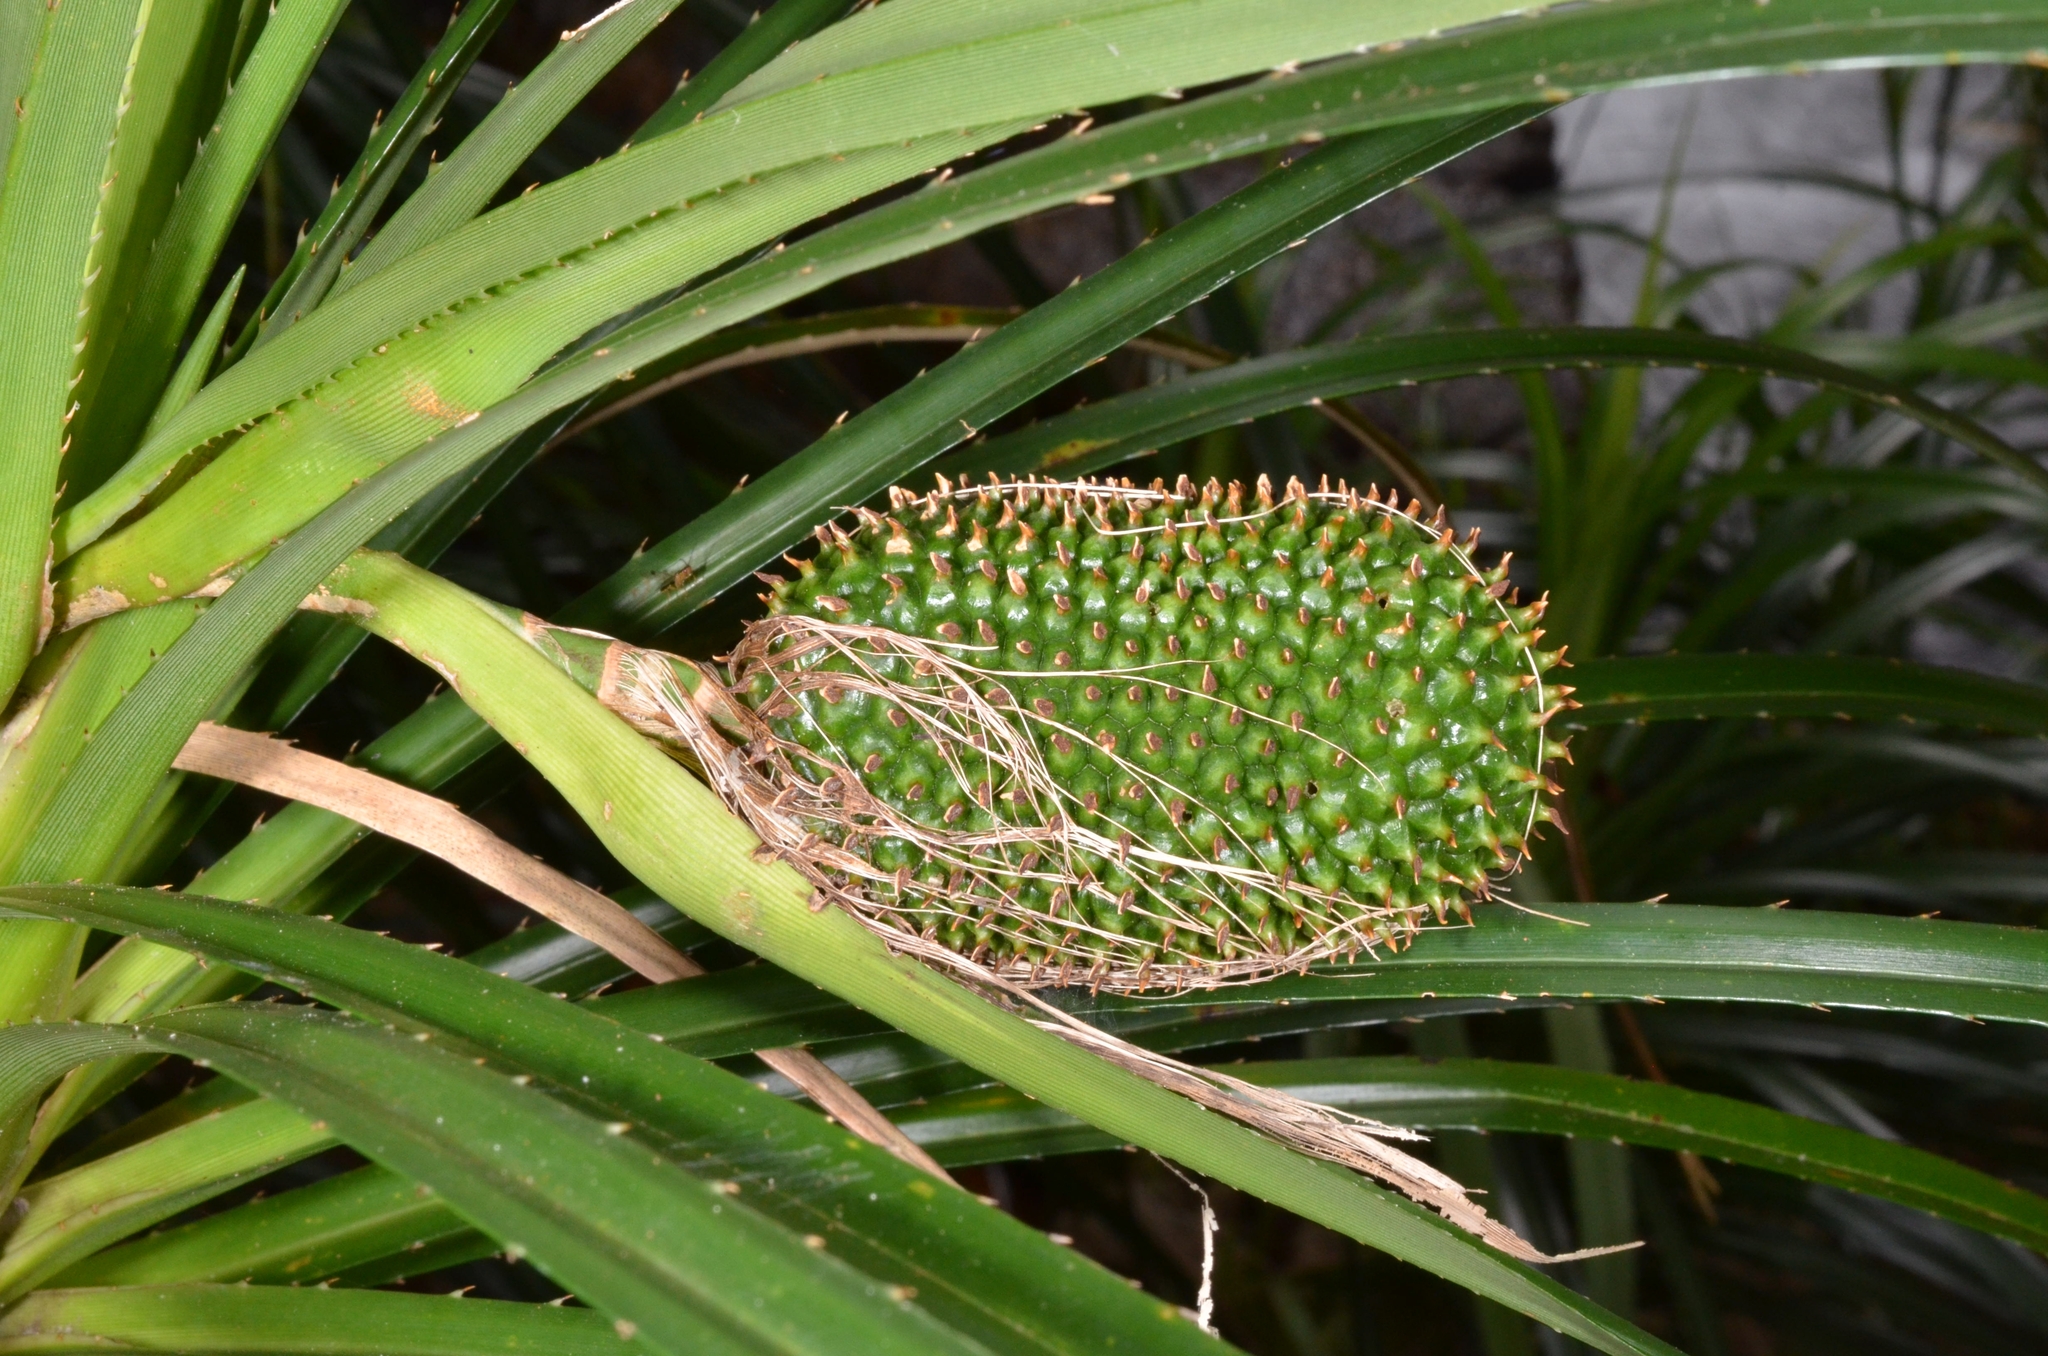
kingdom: Plantae
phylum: Tracheophyta
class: Liliopsida
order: Pandanales
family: Pandanaceae
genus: Pandanus
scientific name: Pandanus fibrosus
